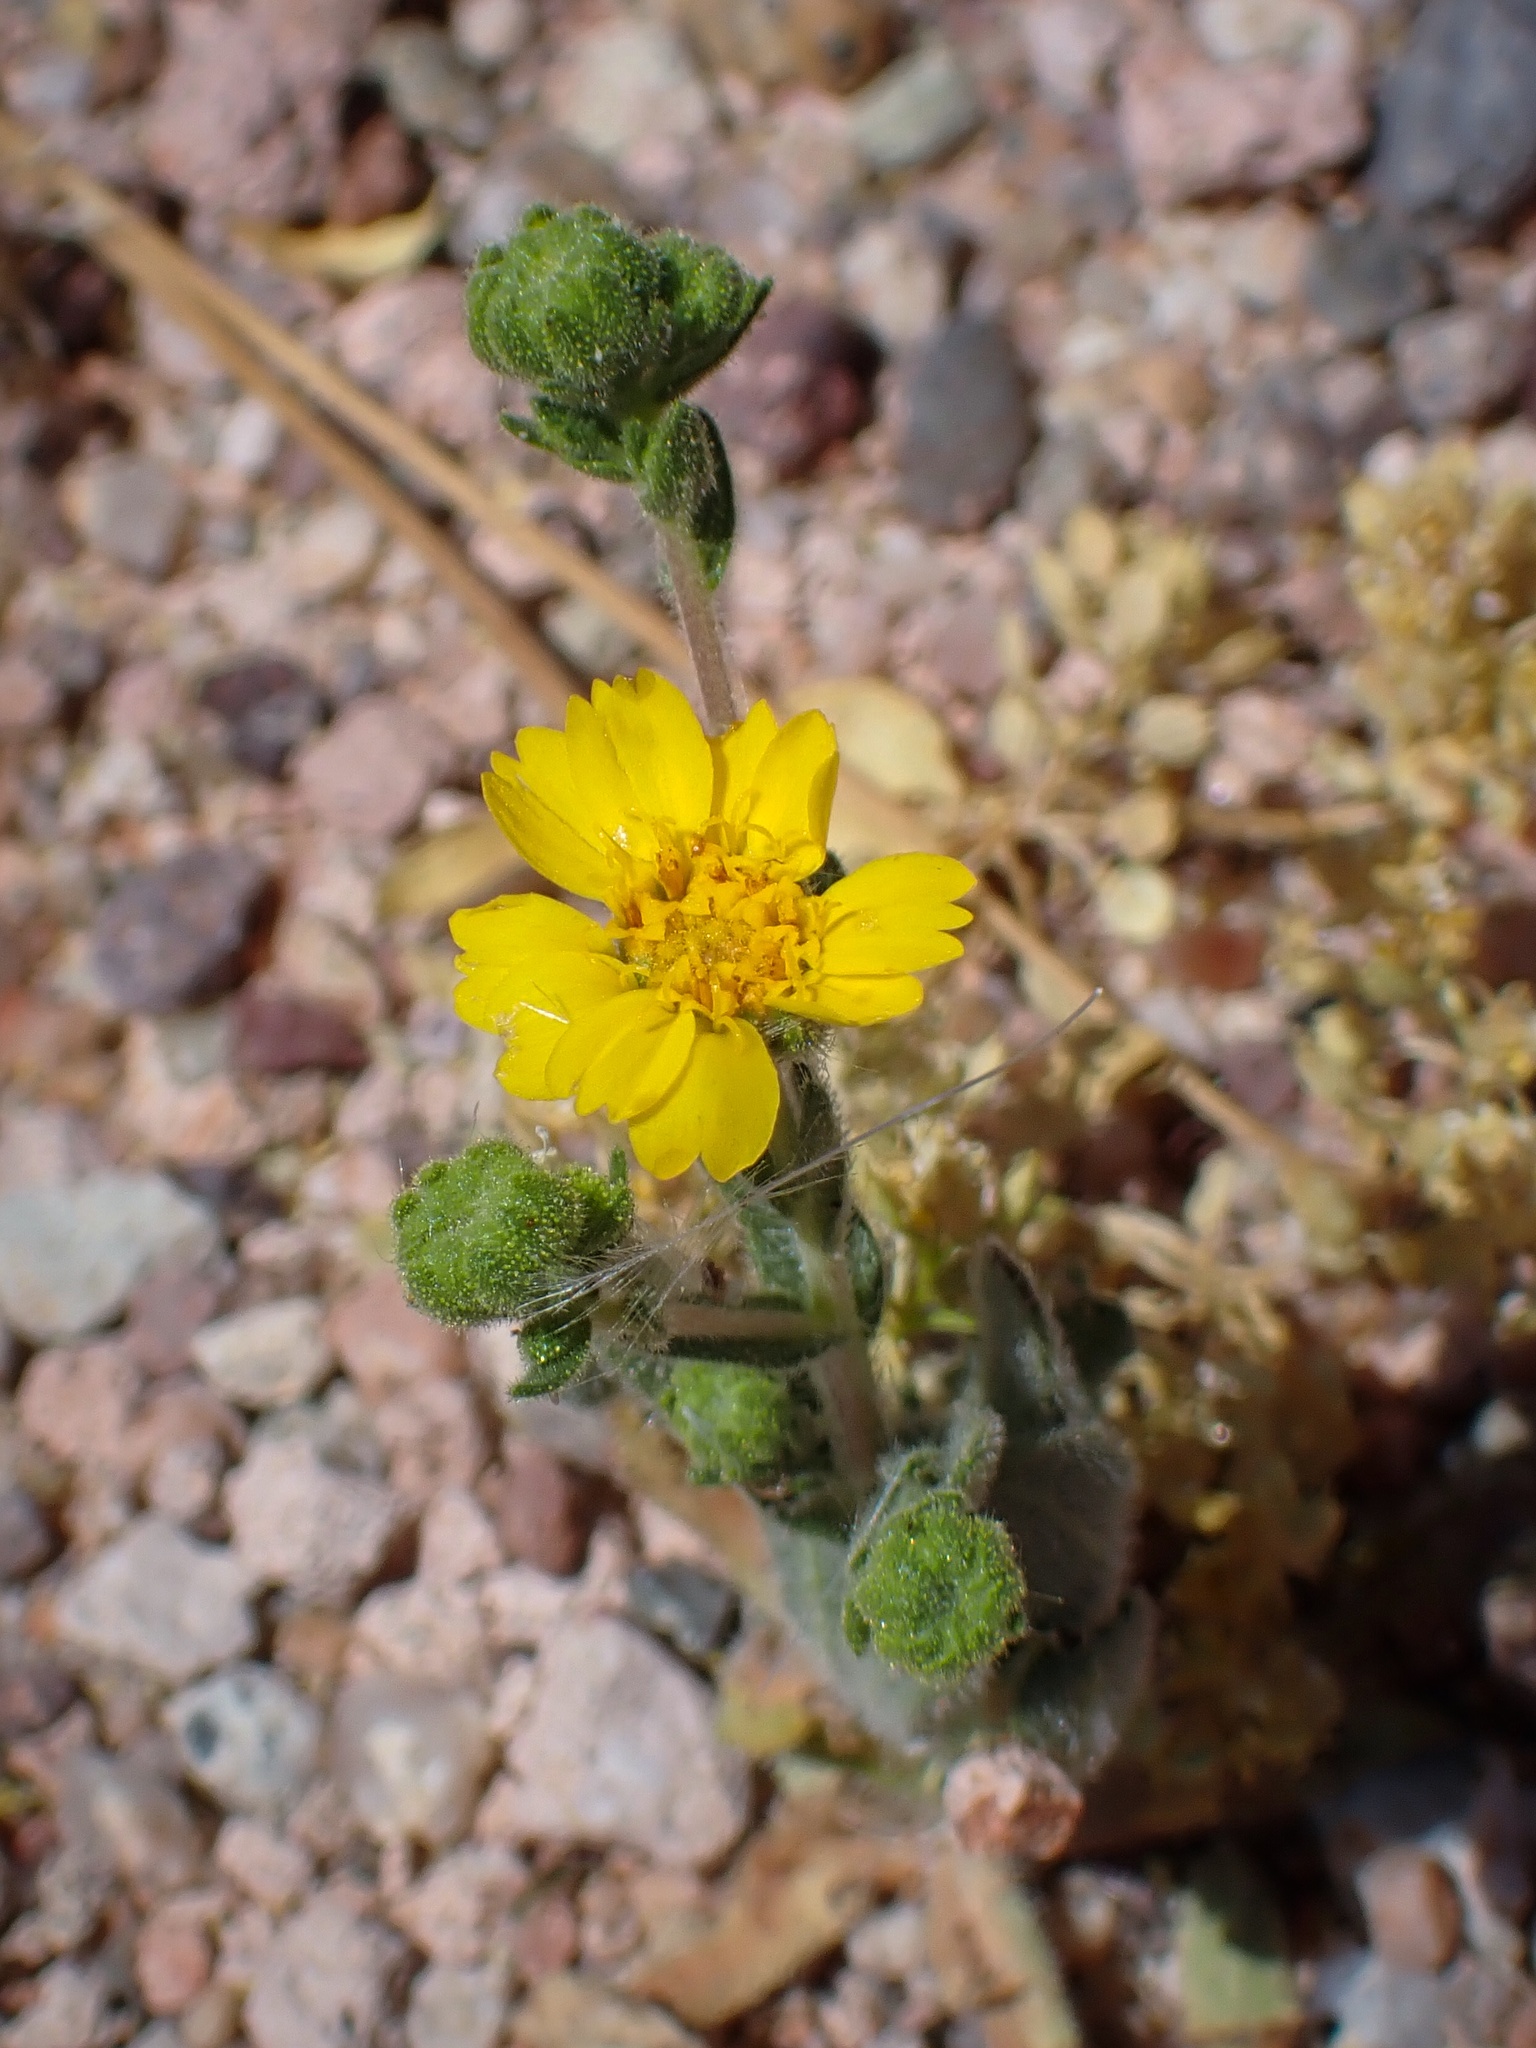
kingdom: Plantae
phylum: Tracheophyta
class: Magnoliopsida
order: Asterales
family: Asteraceae
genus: Deinandra
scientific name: Deinandra arida
